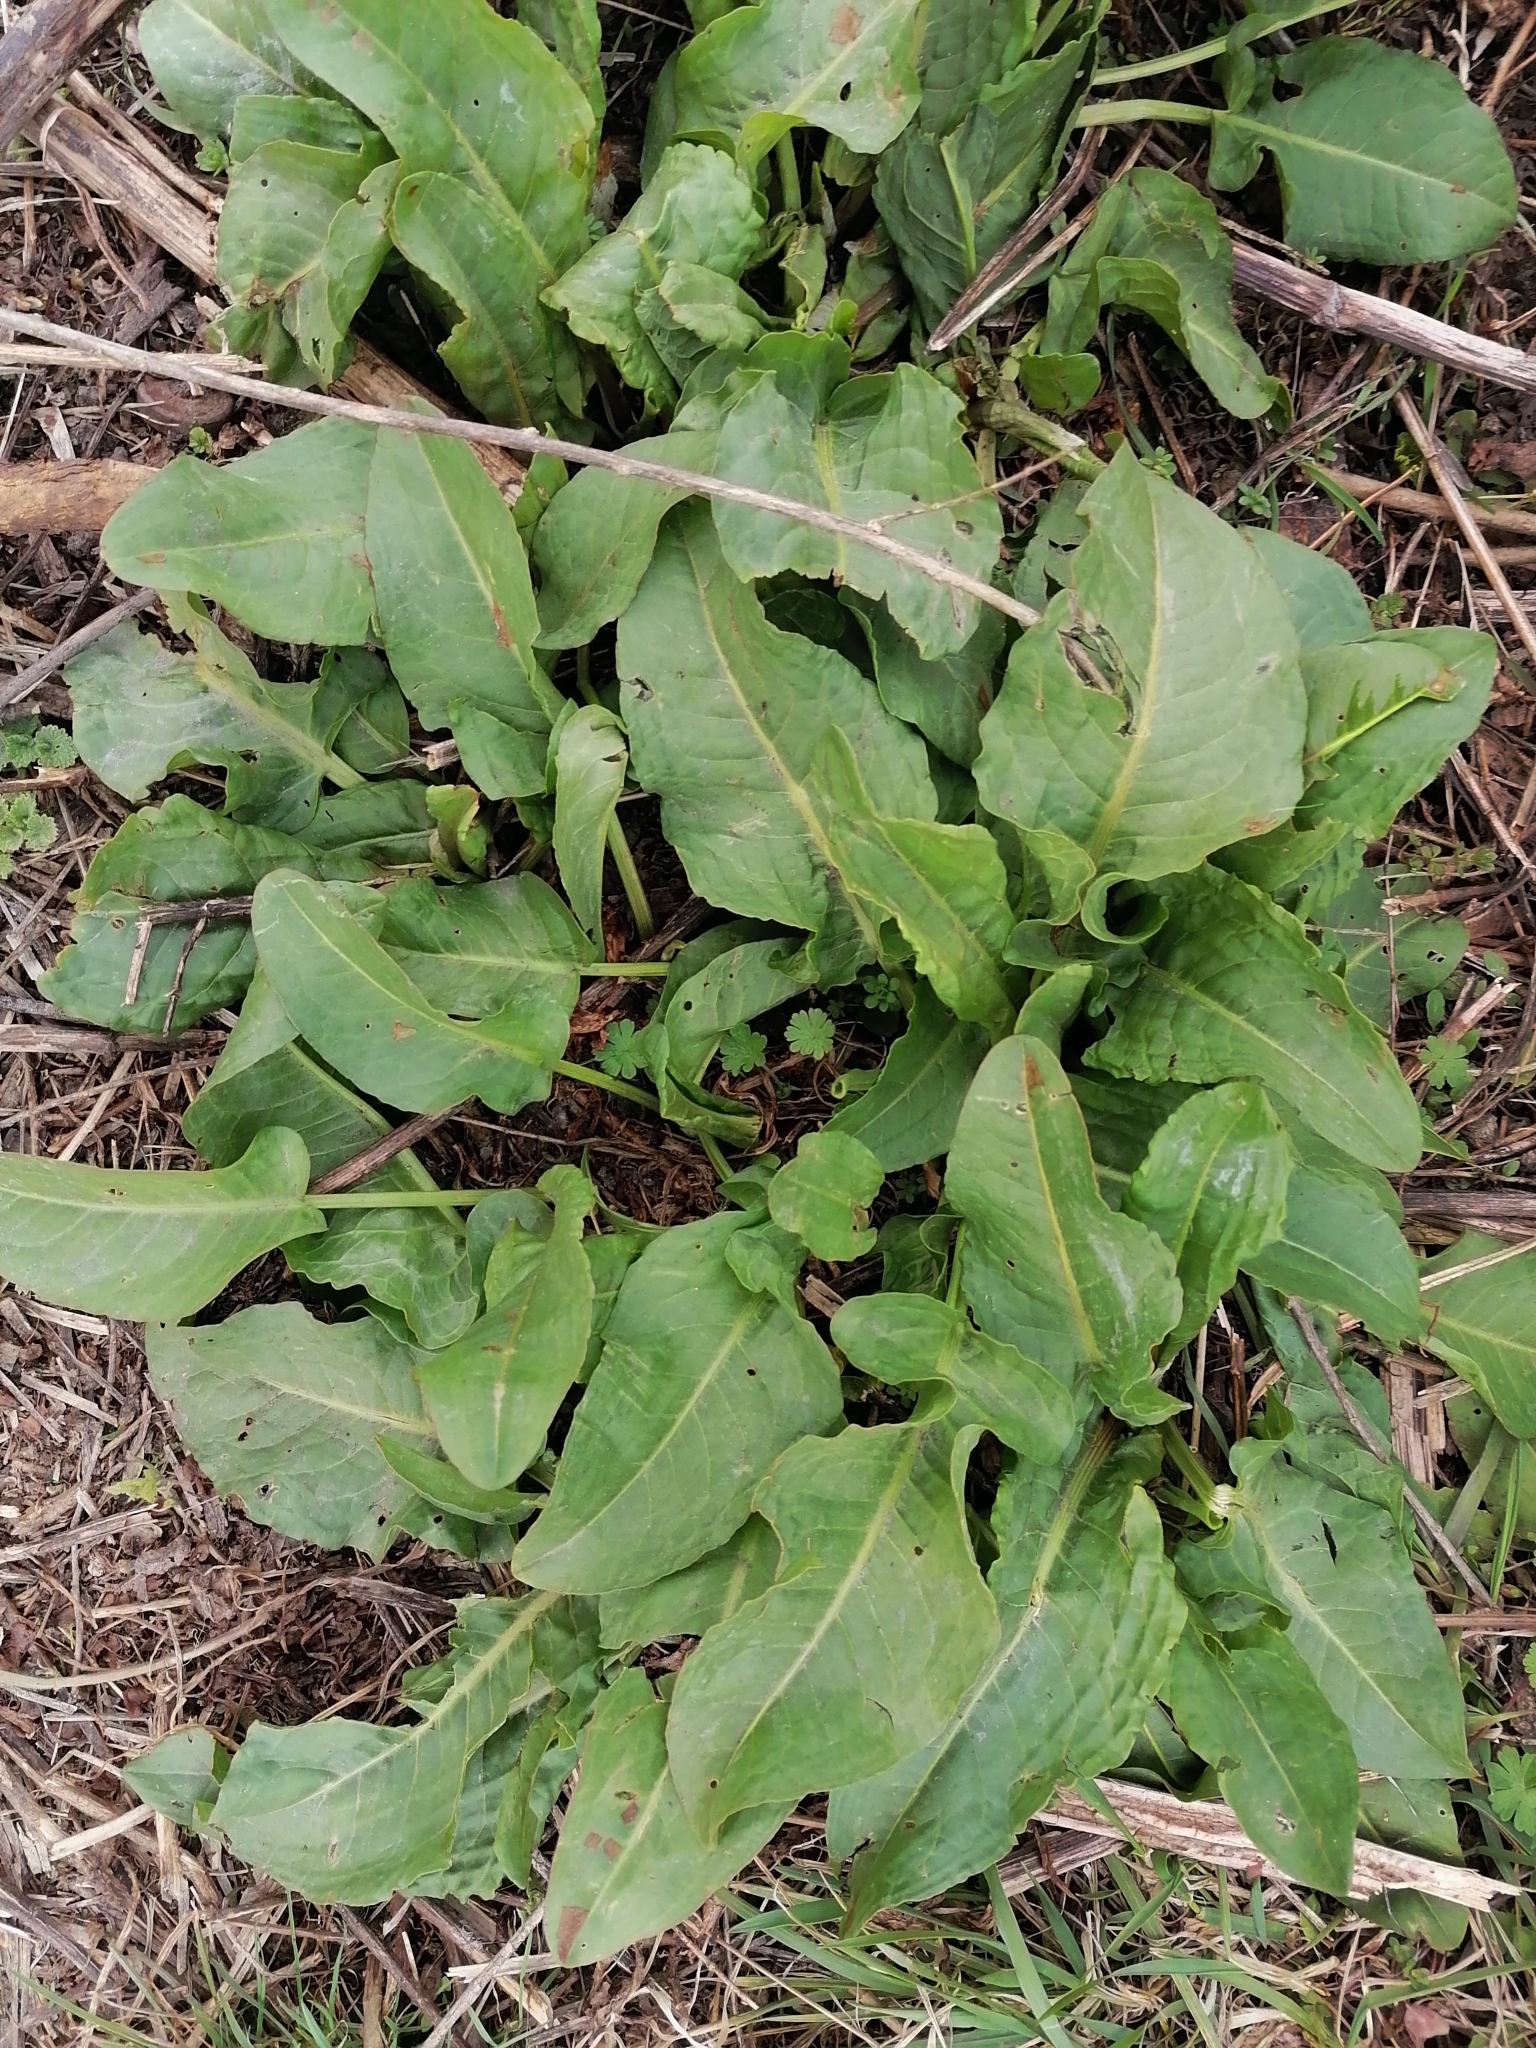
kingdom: Plantae
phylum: Tracheophyta
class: Magnoliopsida
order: Caryophyllales
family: Polygonaceae
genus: Rumex
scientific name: Rumex obtusifolius
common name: Bitter dock
